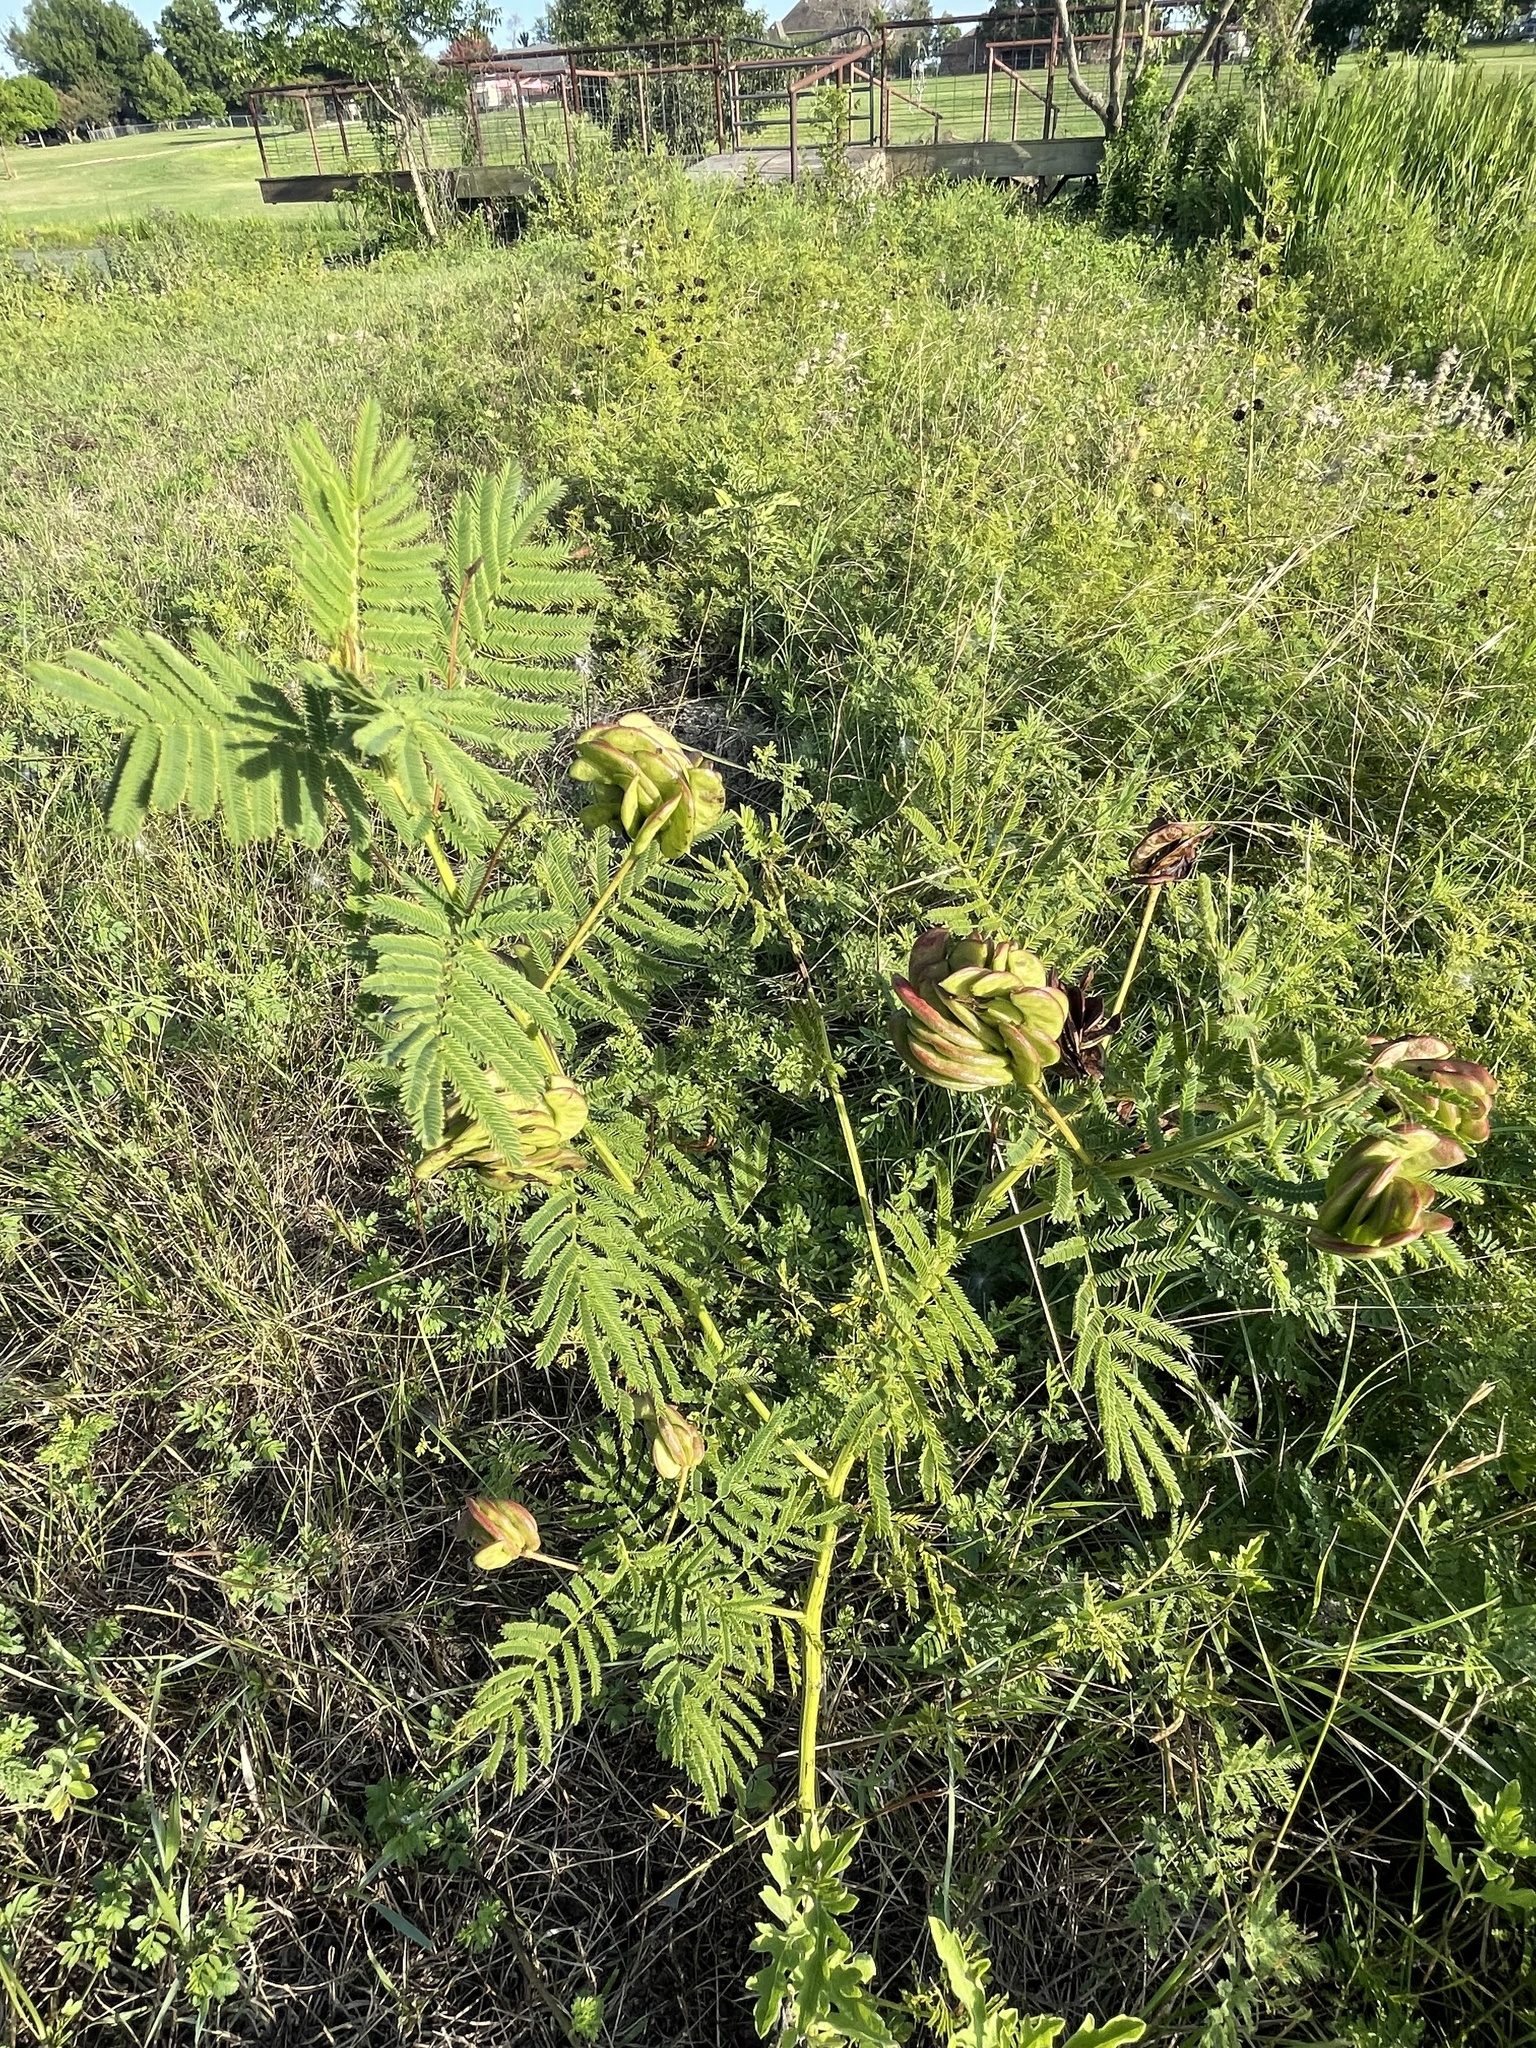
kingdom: Plantae
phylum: Tracheophyta
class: Magnoliopsida
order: Fabales
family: Fabaceae
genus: Desmanthus
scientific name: Desmanthus illinoensis
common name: Illinois bundle-flower
